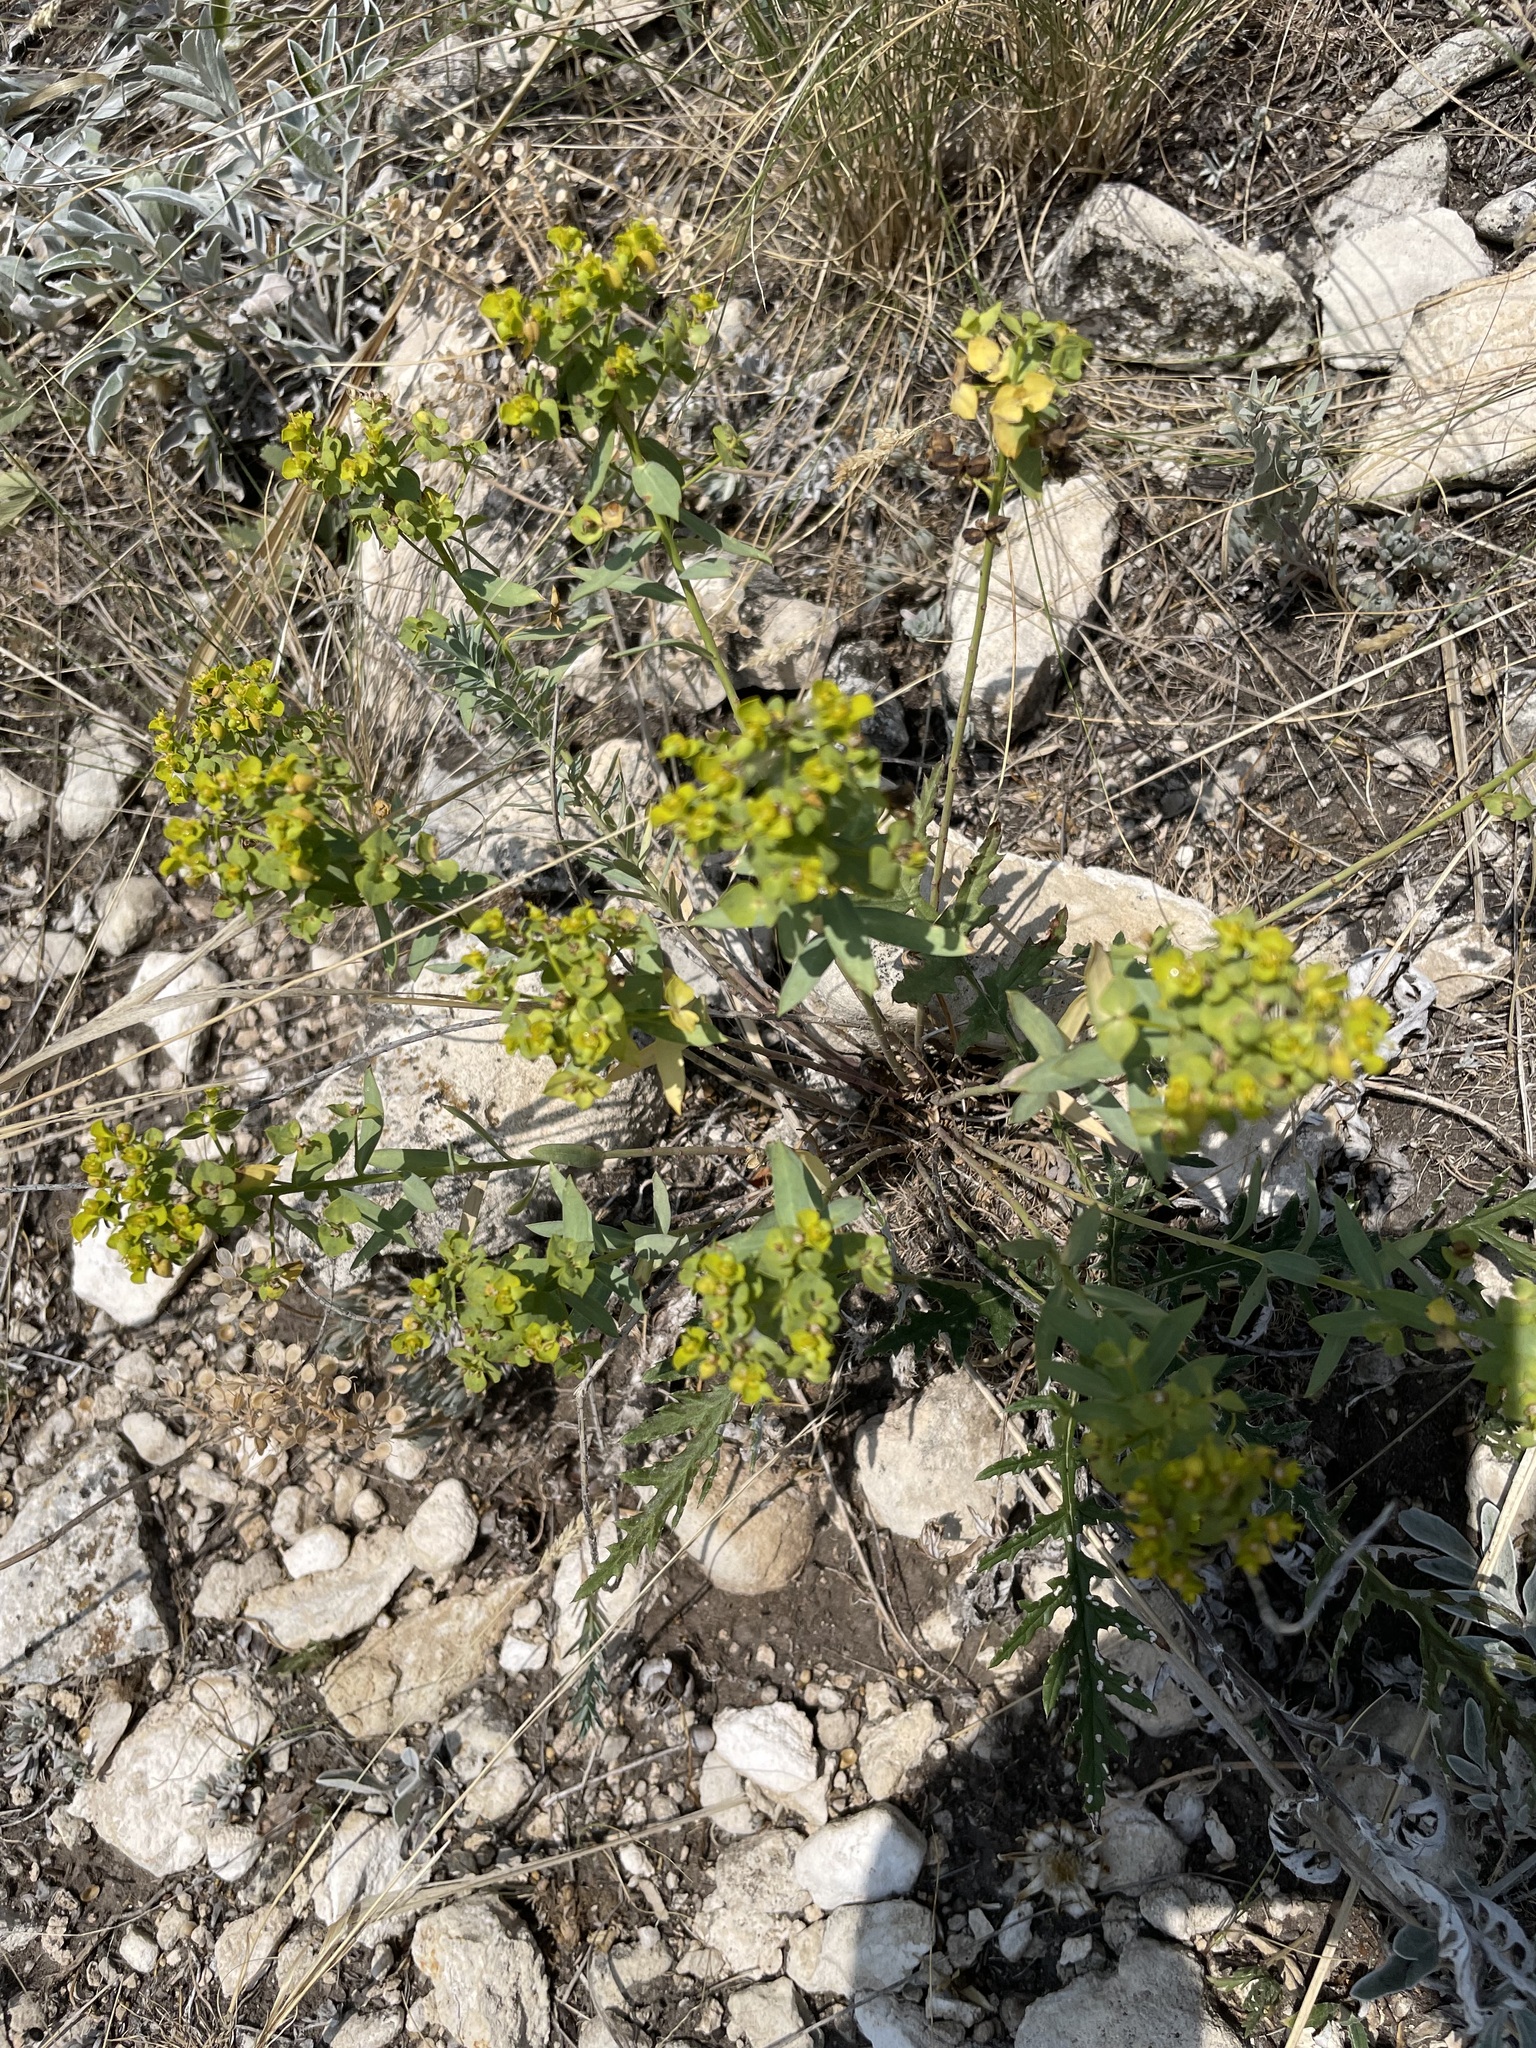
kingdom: Plantae
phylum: Tracheophyta
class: Magnoliopsida
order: Malpighiales
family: Euphorbiaceae
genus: Euphorbia
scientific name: Euphorbia seguieriana
